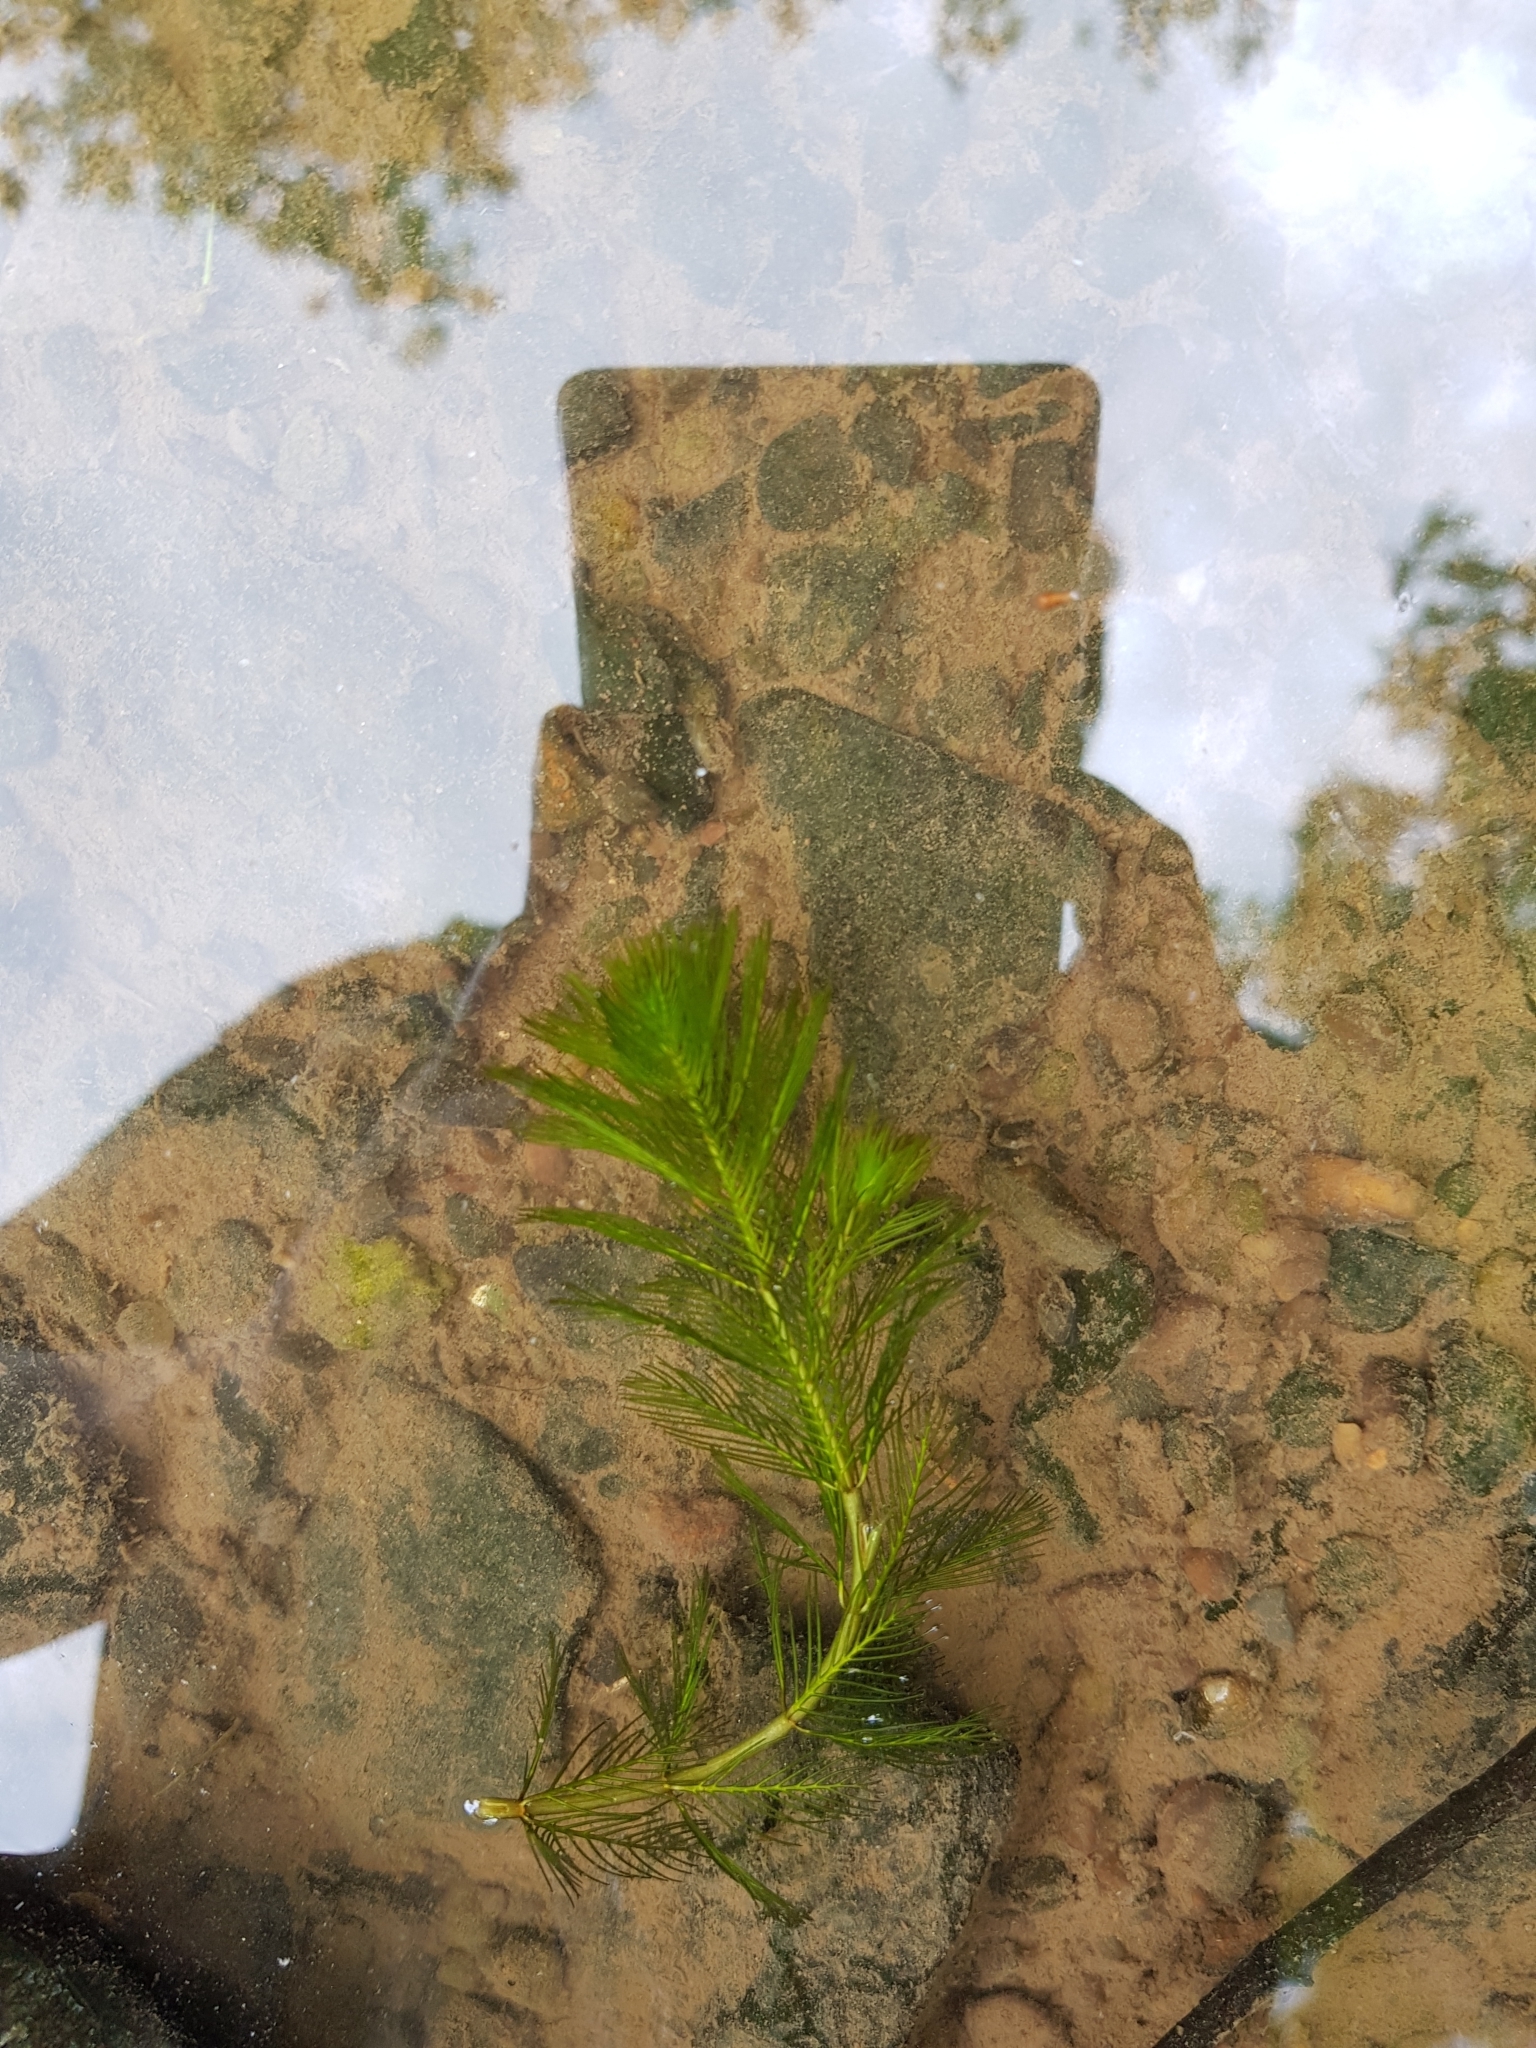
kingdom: Plantae
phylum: Tracheophyta
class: Magnoliopsida
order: Saxifragales
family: Haloragaceae
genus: Myriophyllum
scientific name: Myriophyllum spicatum
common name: Spiked water-milfoil
